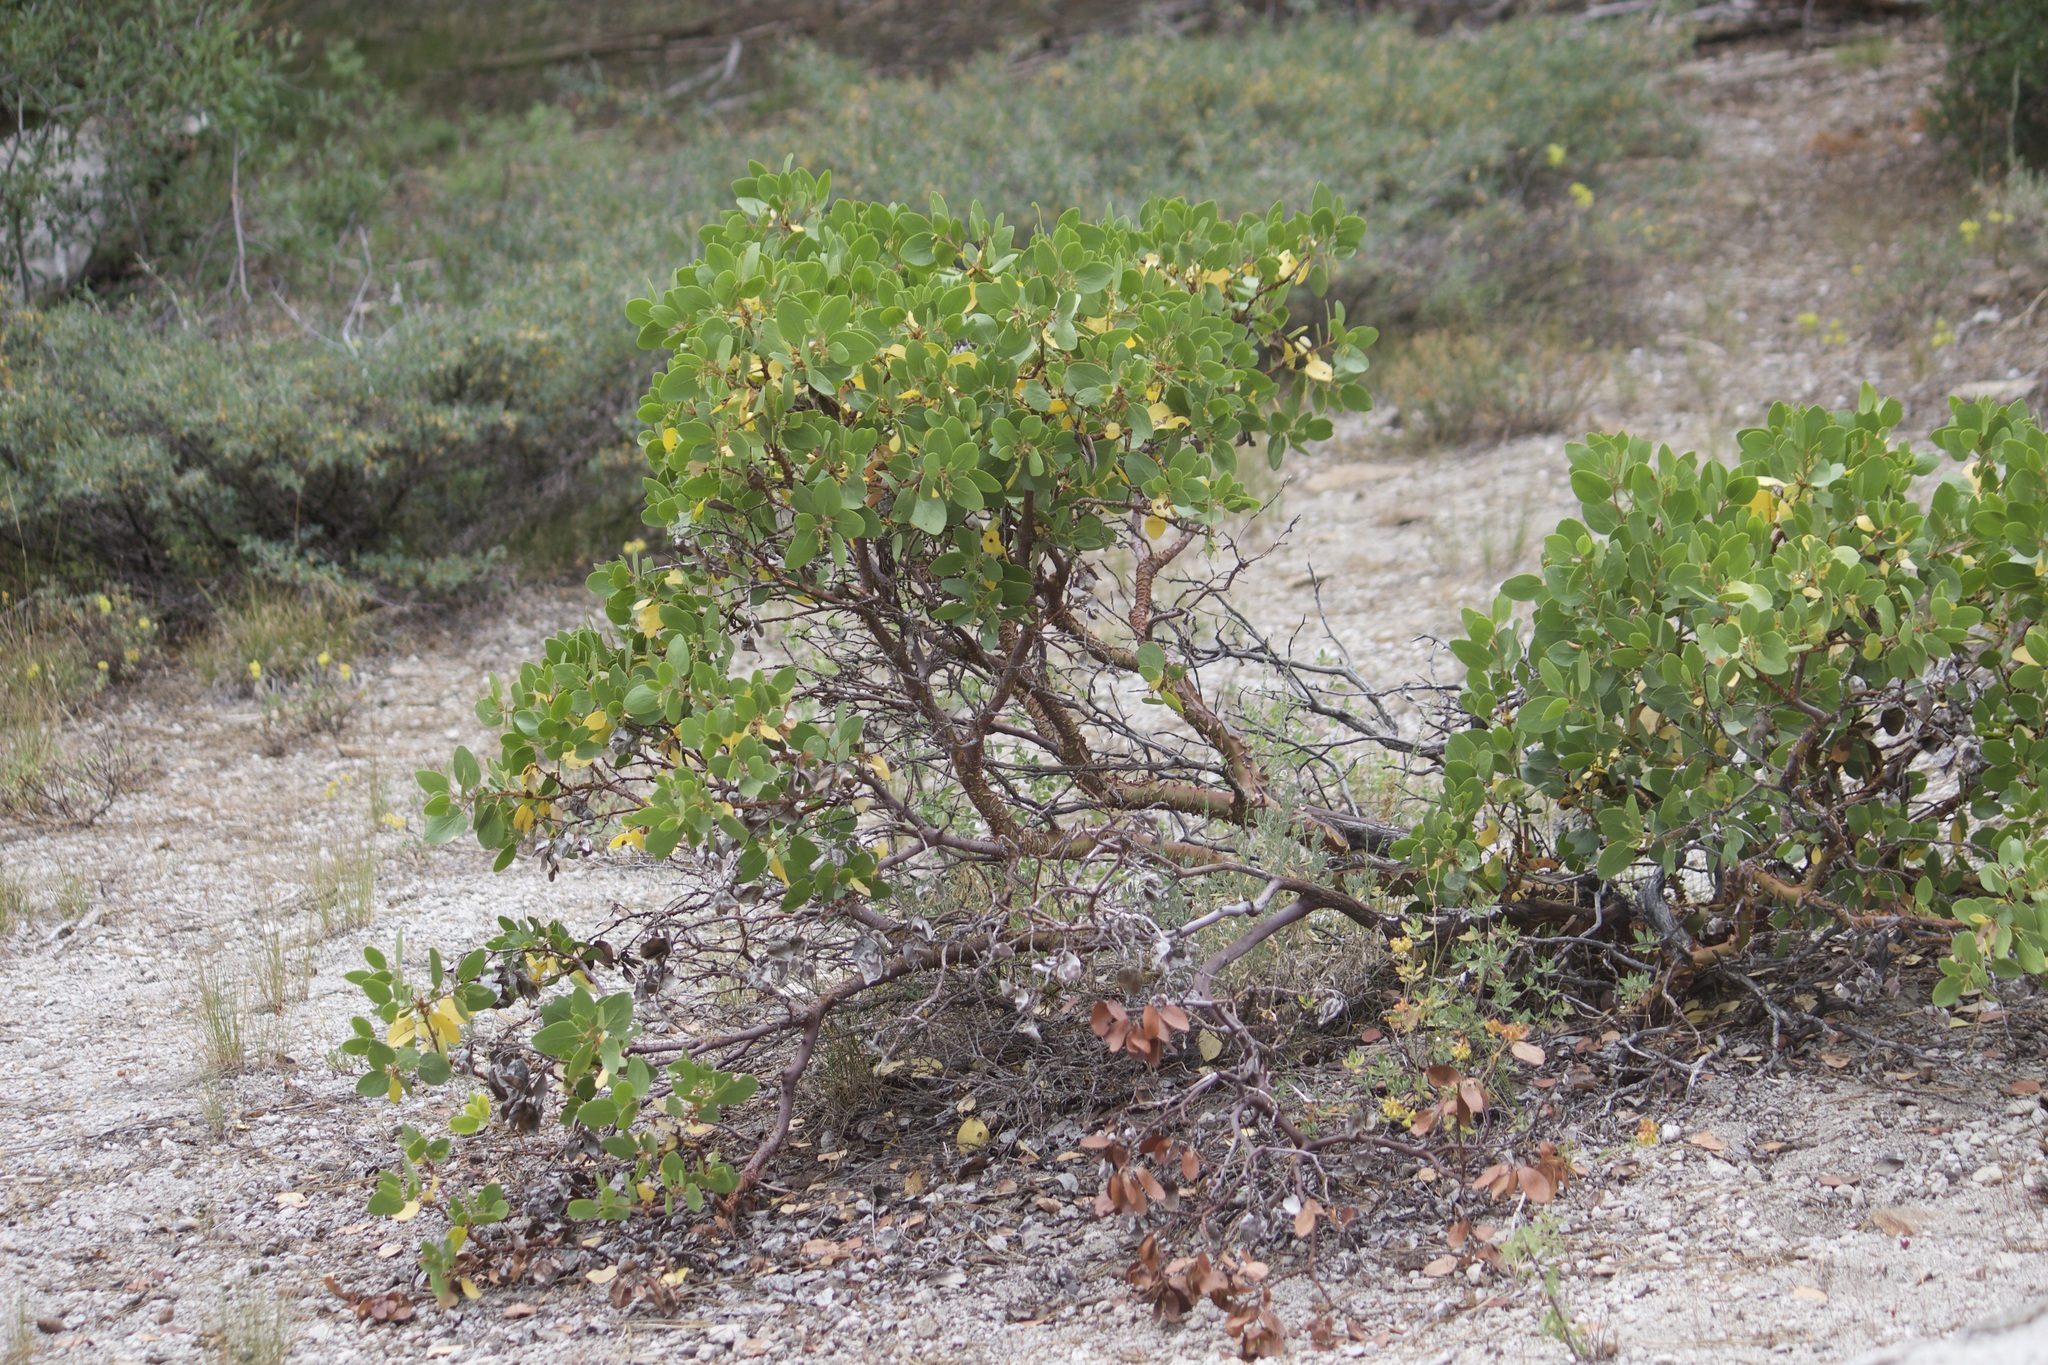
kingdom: Plantae
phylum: Tracheophyta
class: Magnoliopsida
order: Ericales
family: Ericaceae
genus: Arctostaphylos
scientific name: Arctostaphylos patula
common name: Green-leaf manzanita
